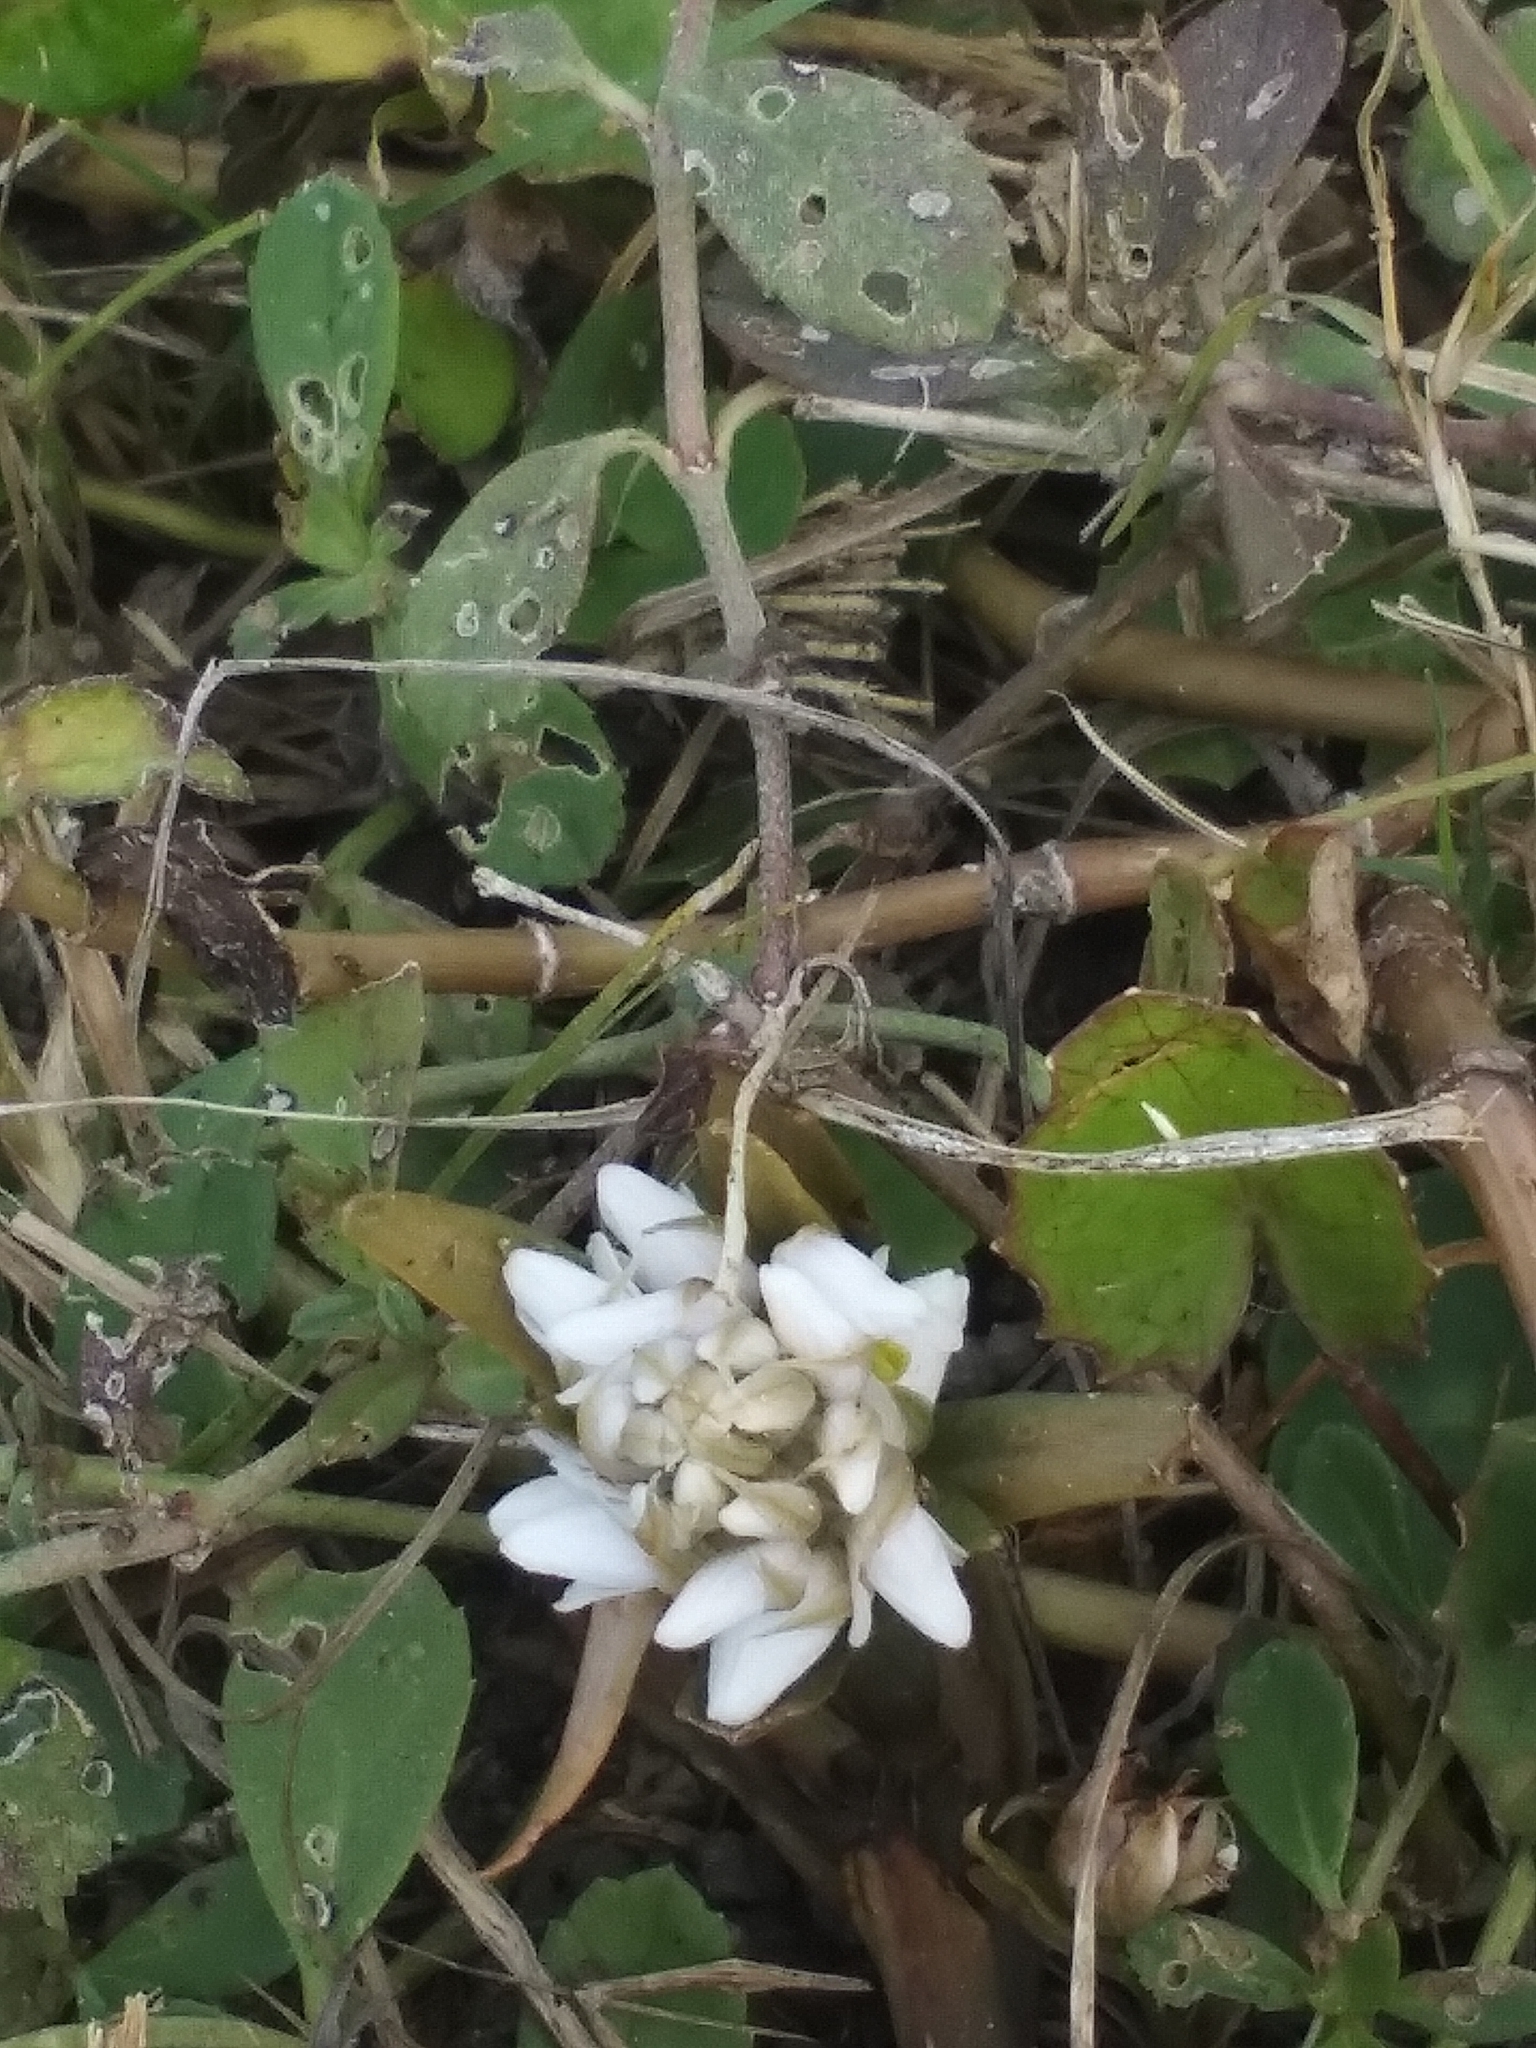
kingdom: Plantae
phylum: Tracheophyta
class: Magnoliopsida
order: Fabales
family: Fabaceae
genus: Trifolium
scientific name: Trifolium repens
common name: White clover
